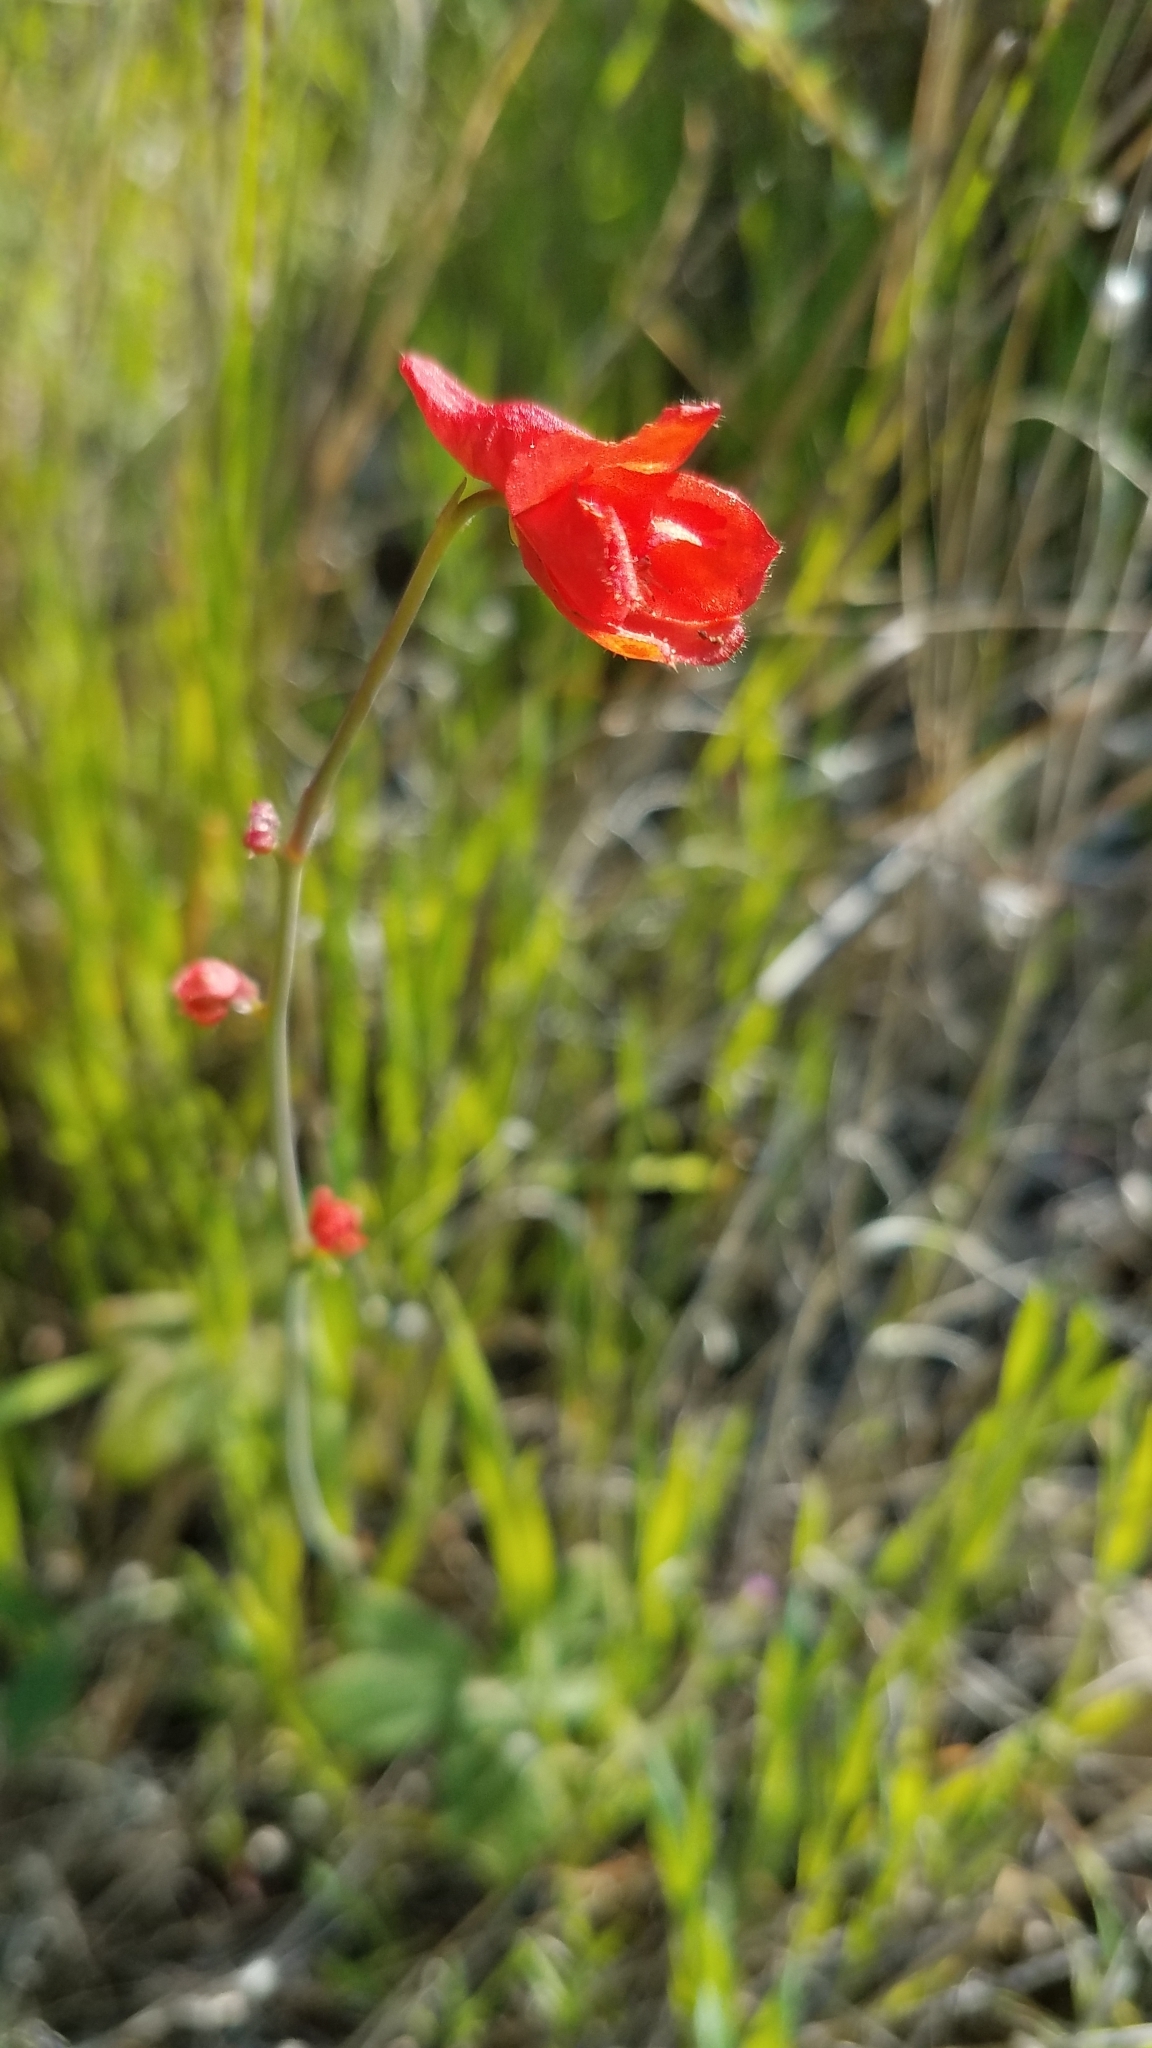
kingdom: Plantae
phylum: Tracheophyta
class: Magnoliopsida
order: Ranunculales
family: Ranunculaceae
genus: Delphinium
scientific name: Delphinium nudicaule
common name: Red larkspur
